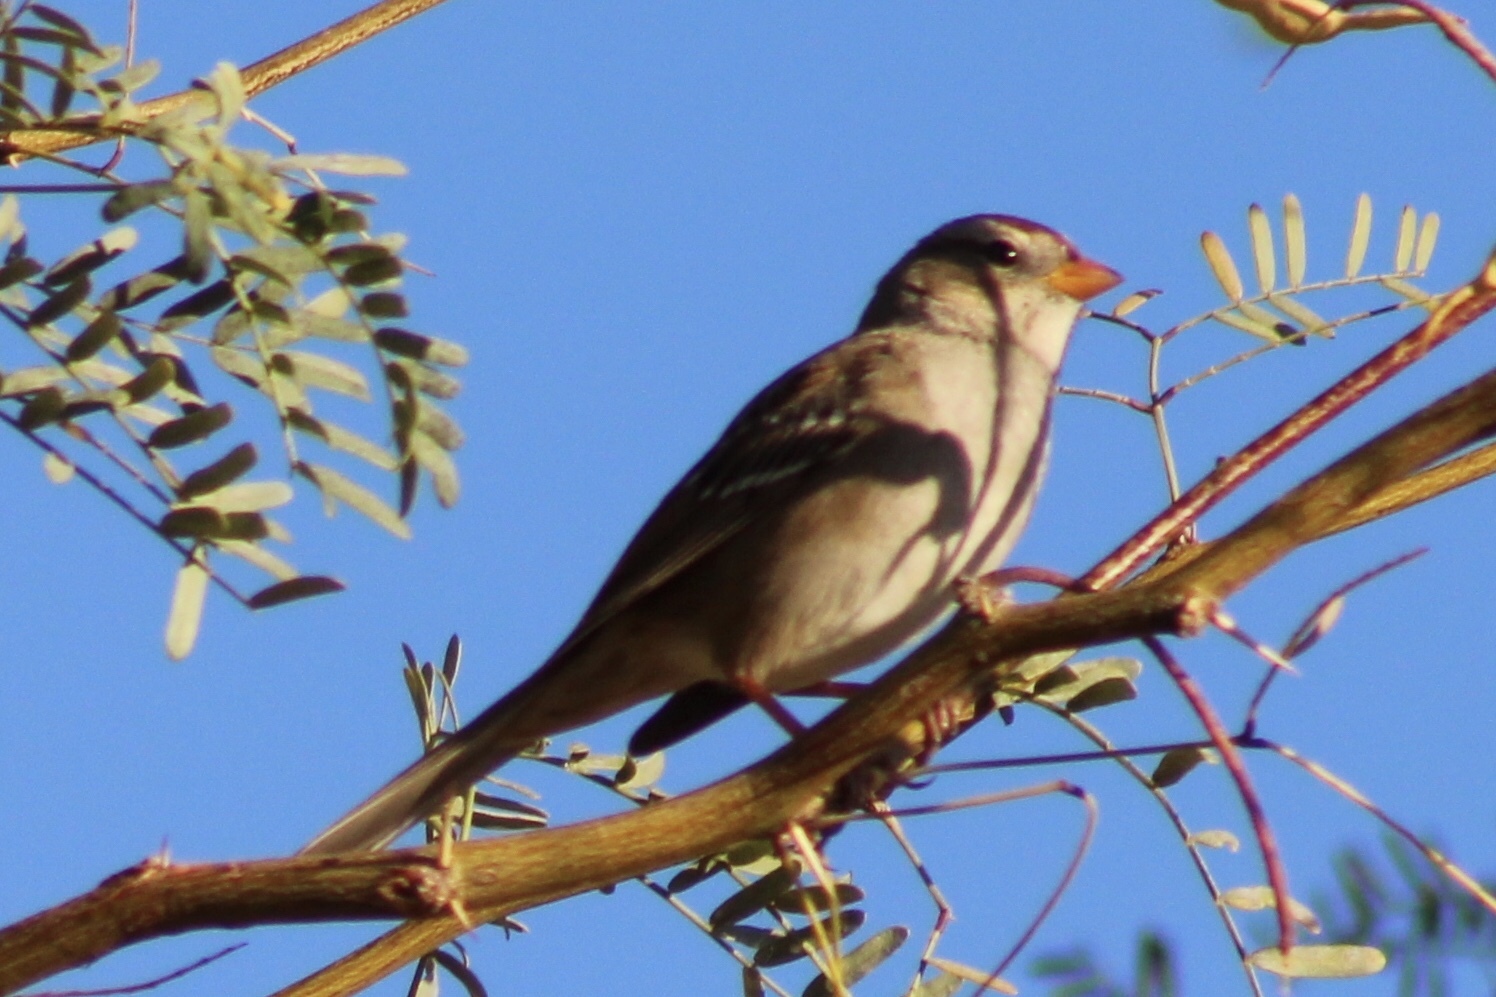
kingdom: Animalia
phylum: Chordata
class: Aves
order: Passeriformes
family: Passerellidae
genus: Zonotrichia
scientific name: Zonotrichia leucophrys
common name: White-crowned sparrow
